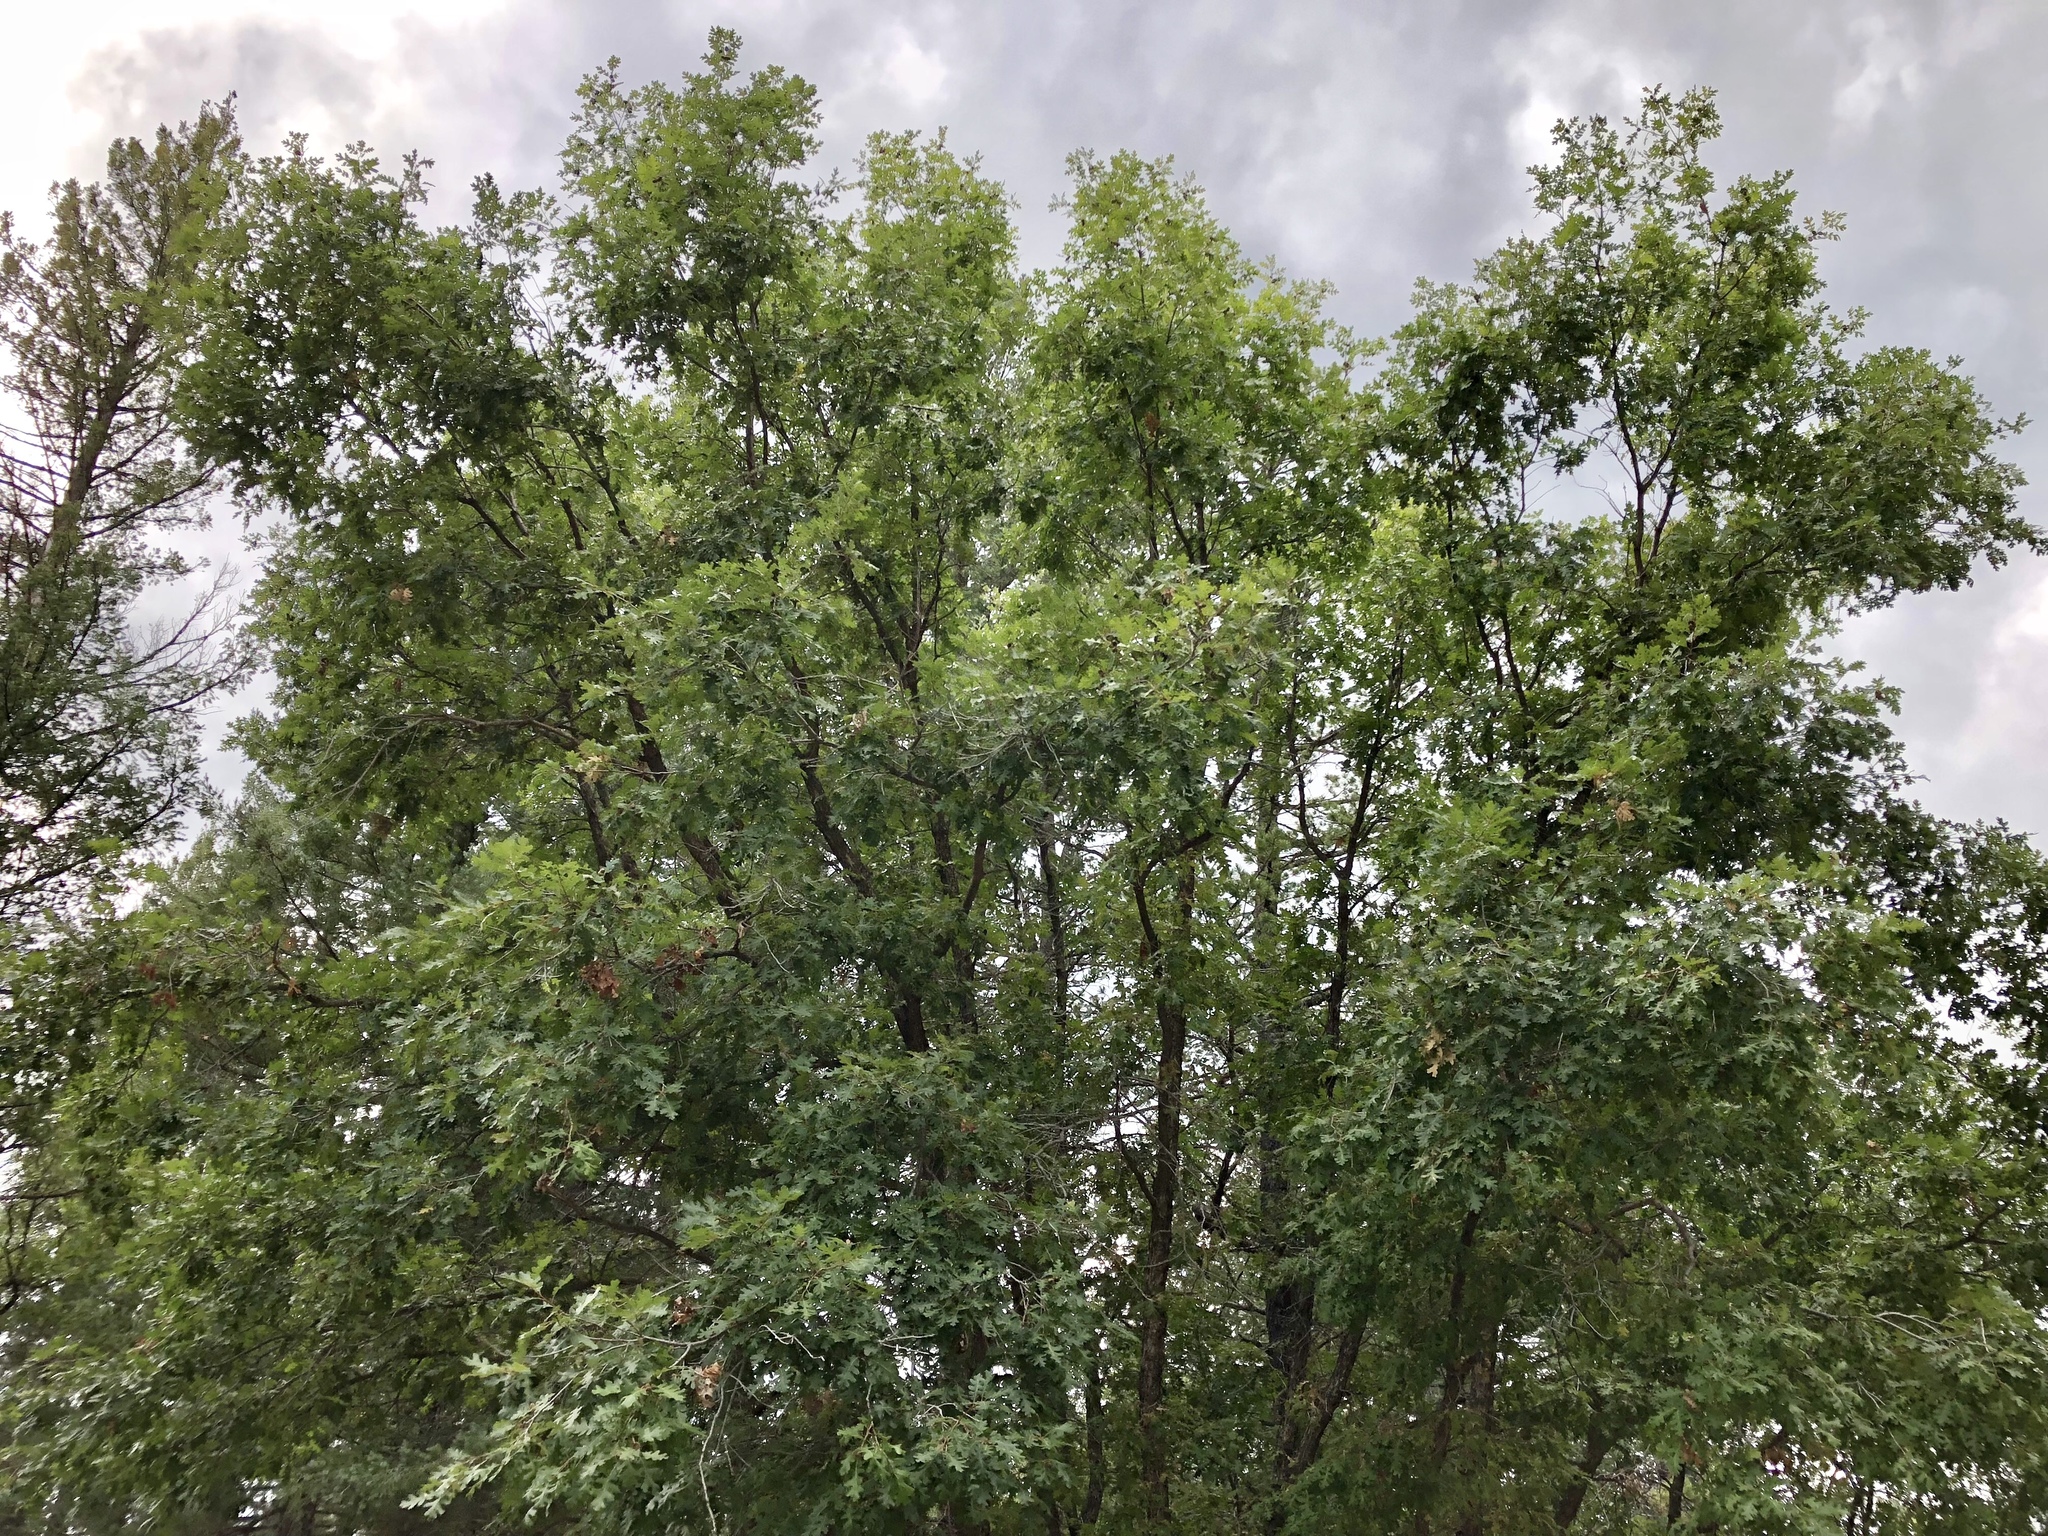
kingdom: Plantae
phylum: Tracheophyta
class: Magnoliopsida
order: Fagales
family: Fagaceae
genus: Quercus
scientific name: Quercus gambelii
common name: Gambel oak
